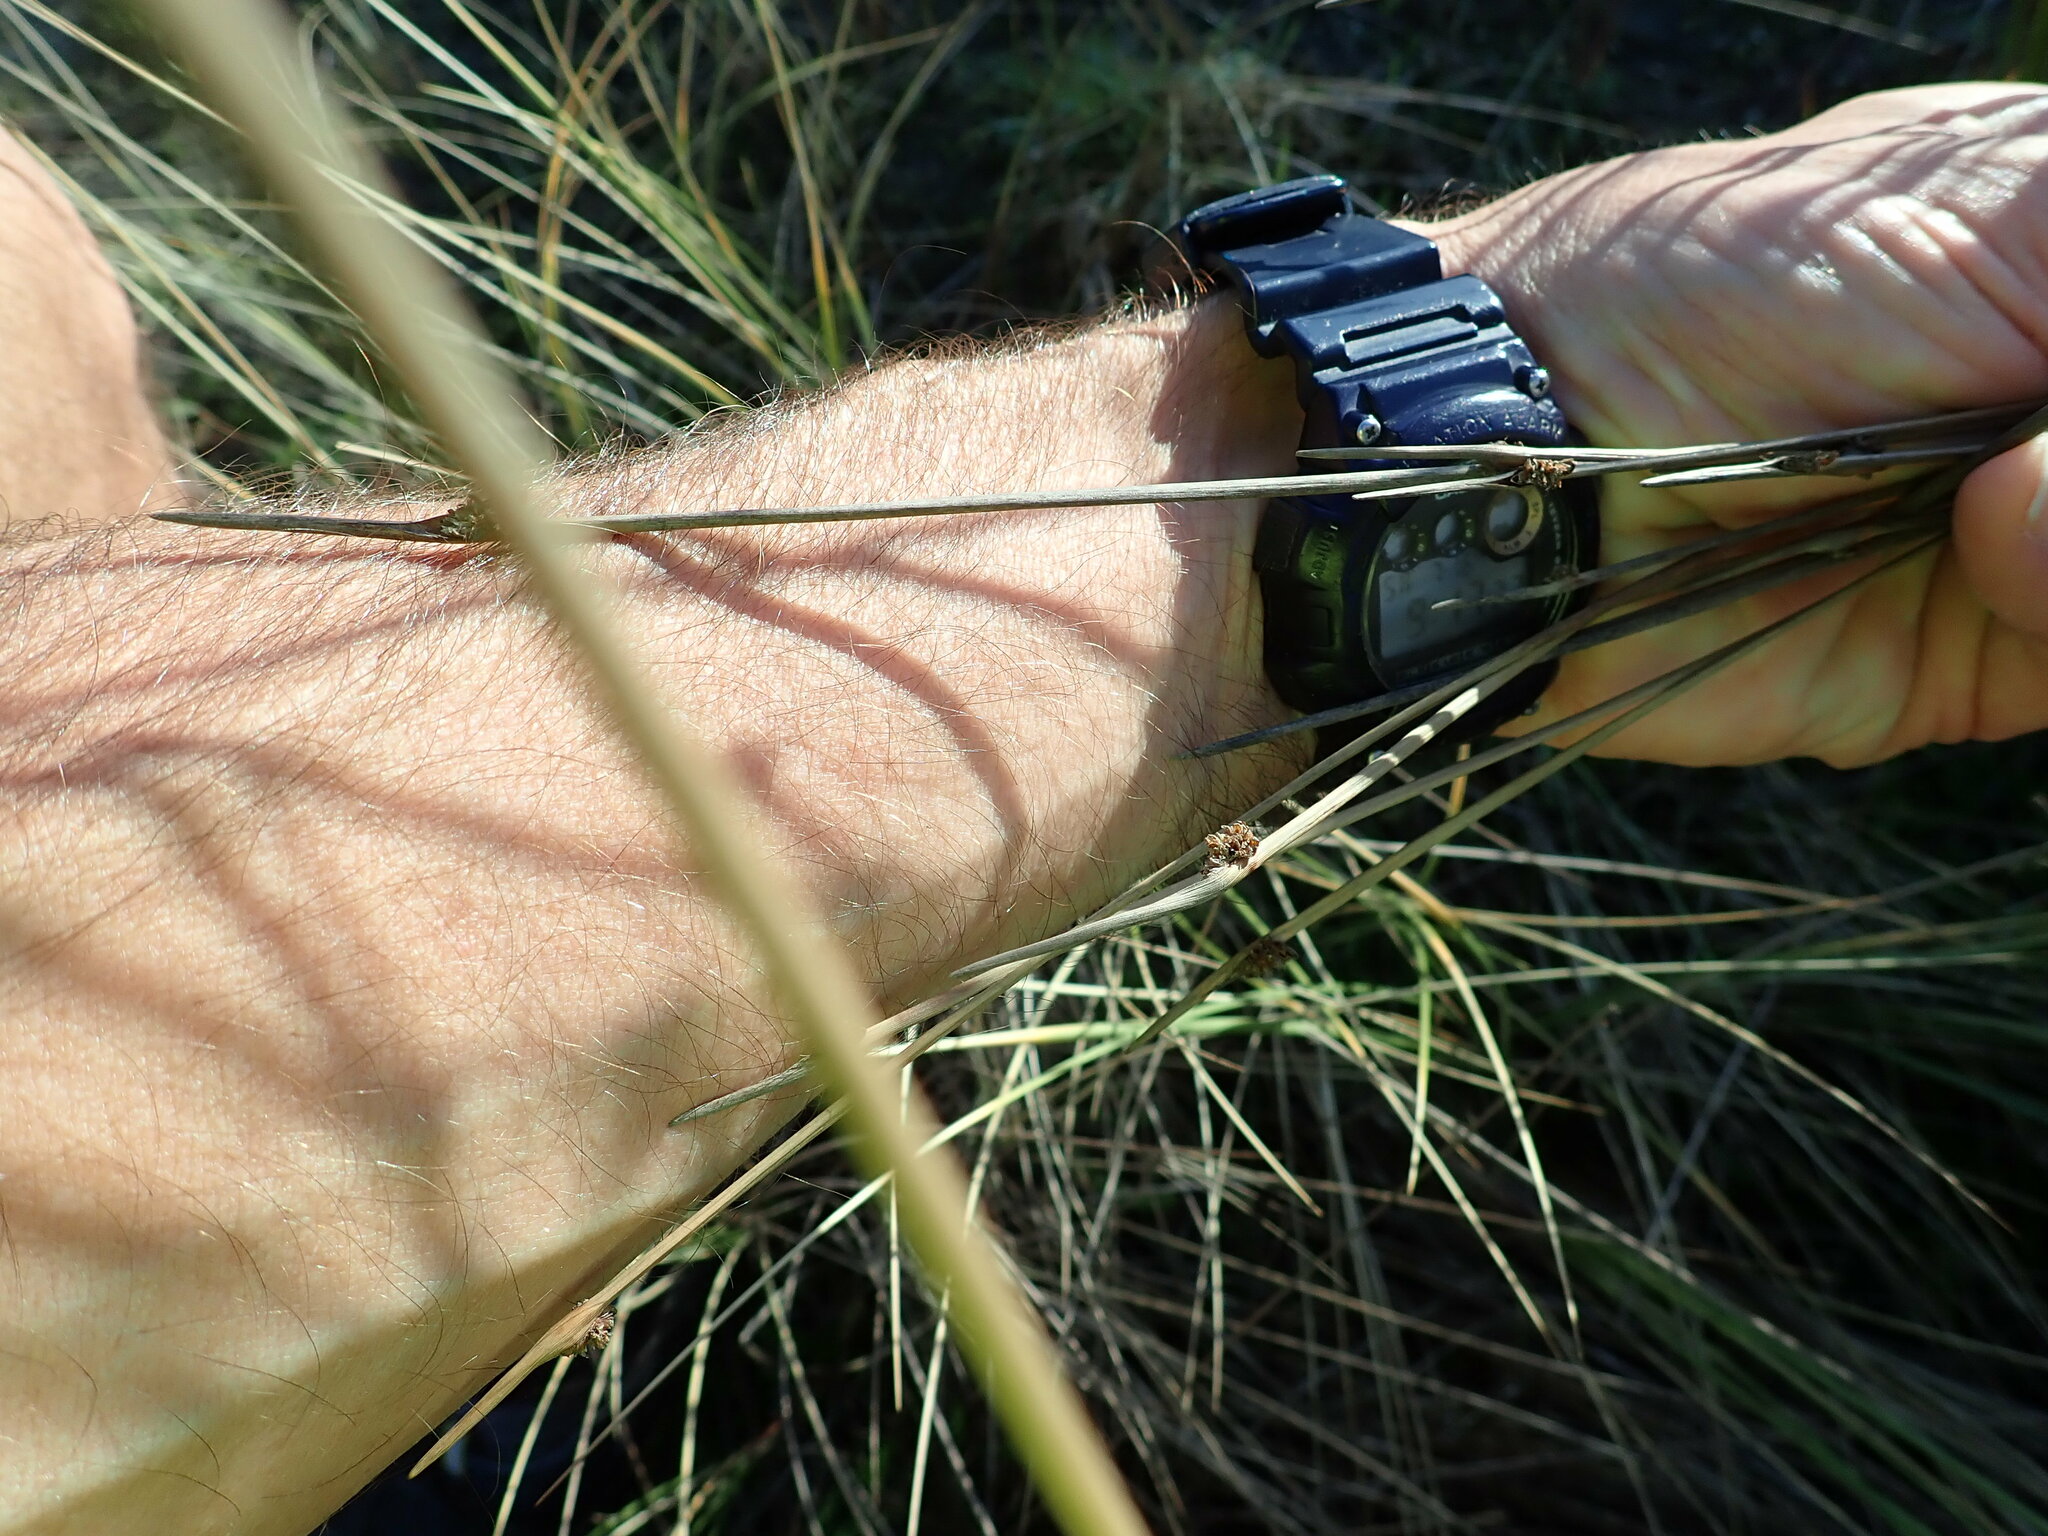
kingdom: Plantae
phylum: Tracheophyta
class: Liliopsida
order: Poales
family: Cyperaceae
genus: Ficinia
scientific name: Ficinia nodosa
